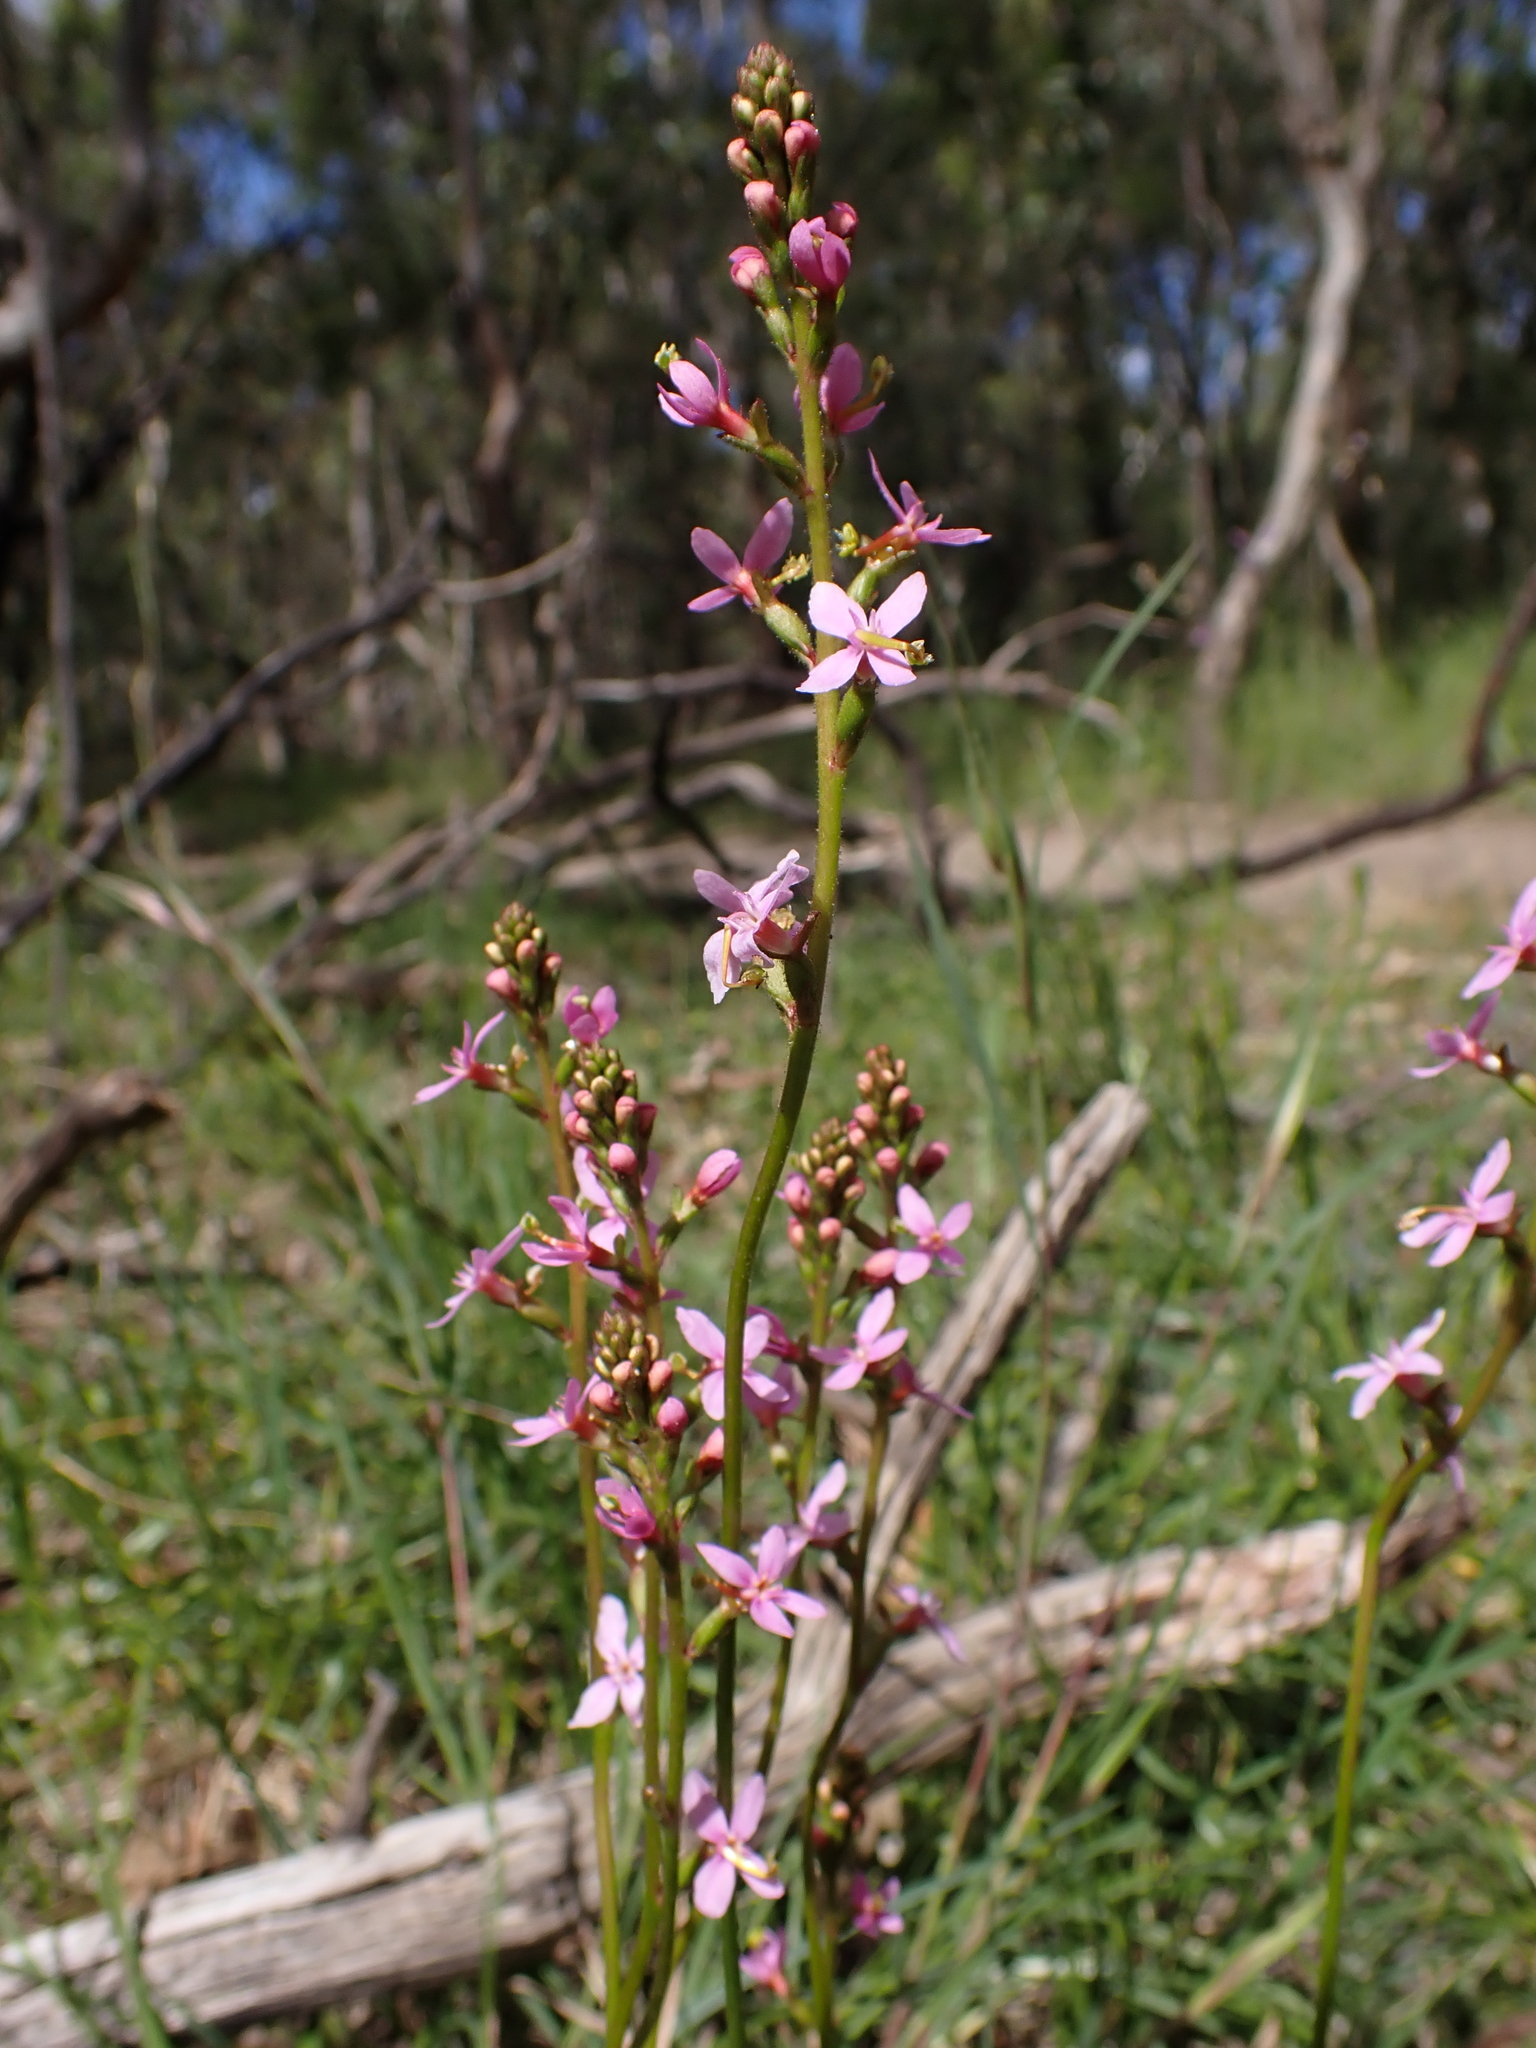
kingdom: Plantae
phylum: Tracheophyta
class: Magnoliopsida
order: Asterales
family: Stylidiaceae
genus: Stylidium
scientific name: Stylidium graminifolium
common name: Grass triggerplant
